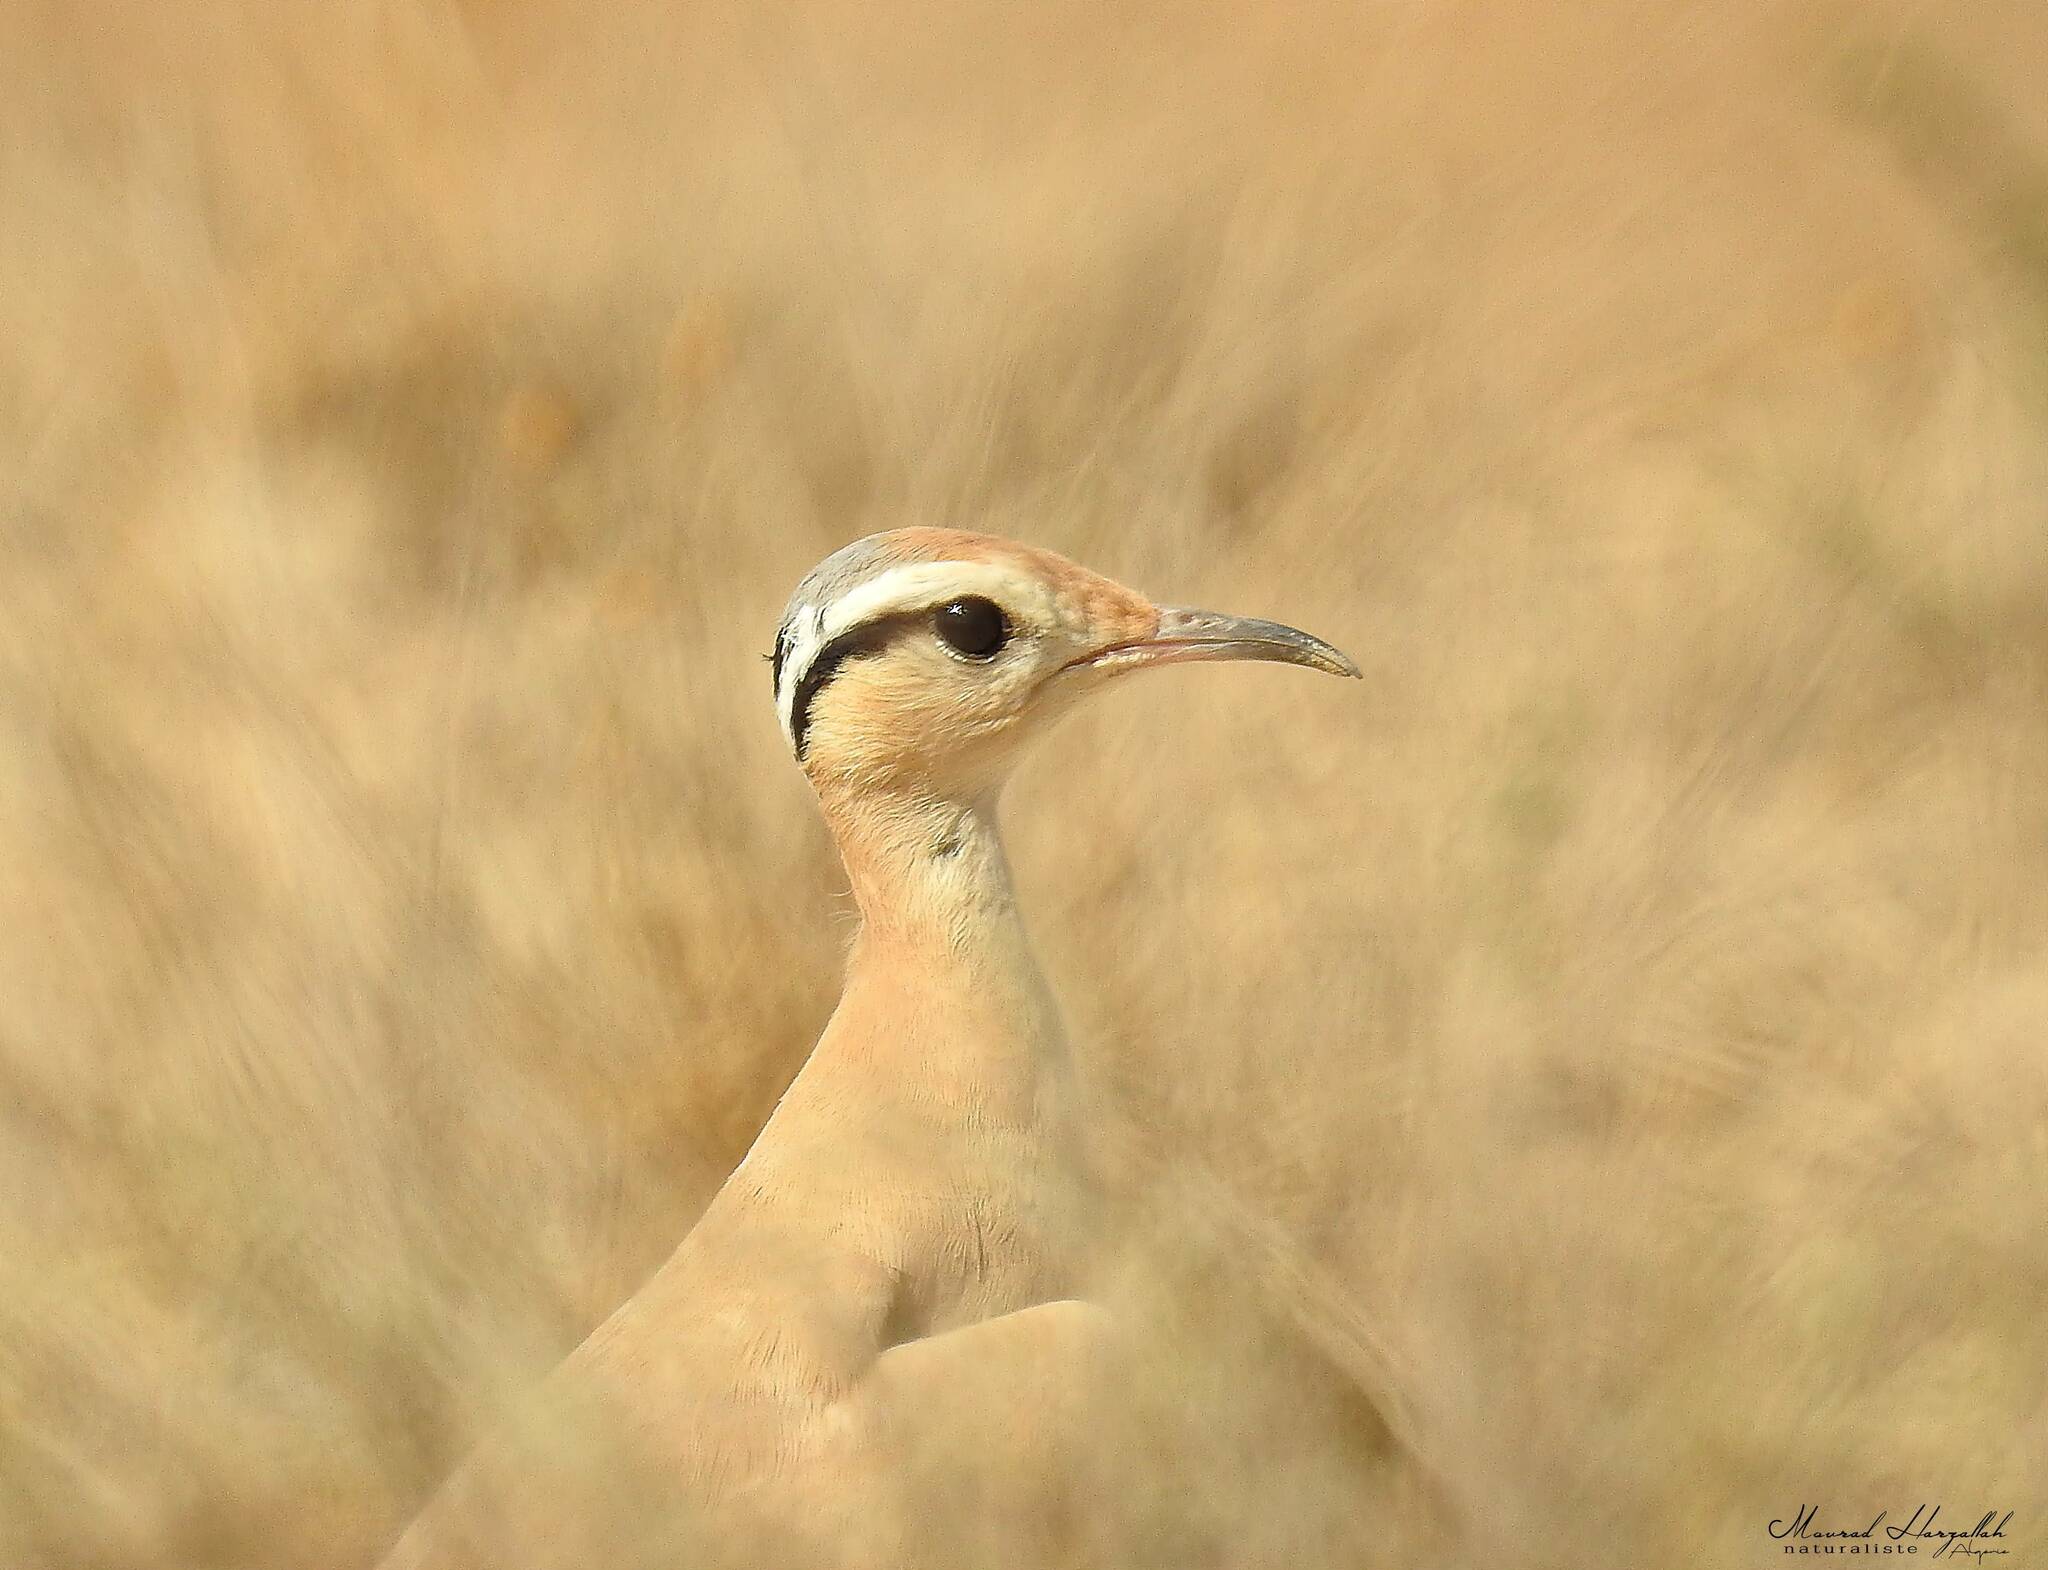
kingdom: Animalia
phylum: Chordata
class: Aves
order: Charadriiformes
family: Glareolidae
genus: Cursorius
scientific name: Cursorius cursor
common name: Cream-colored courser
